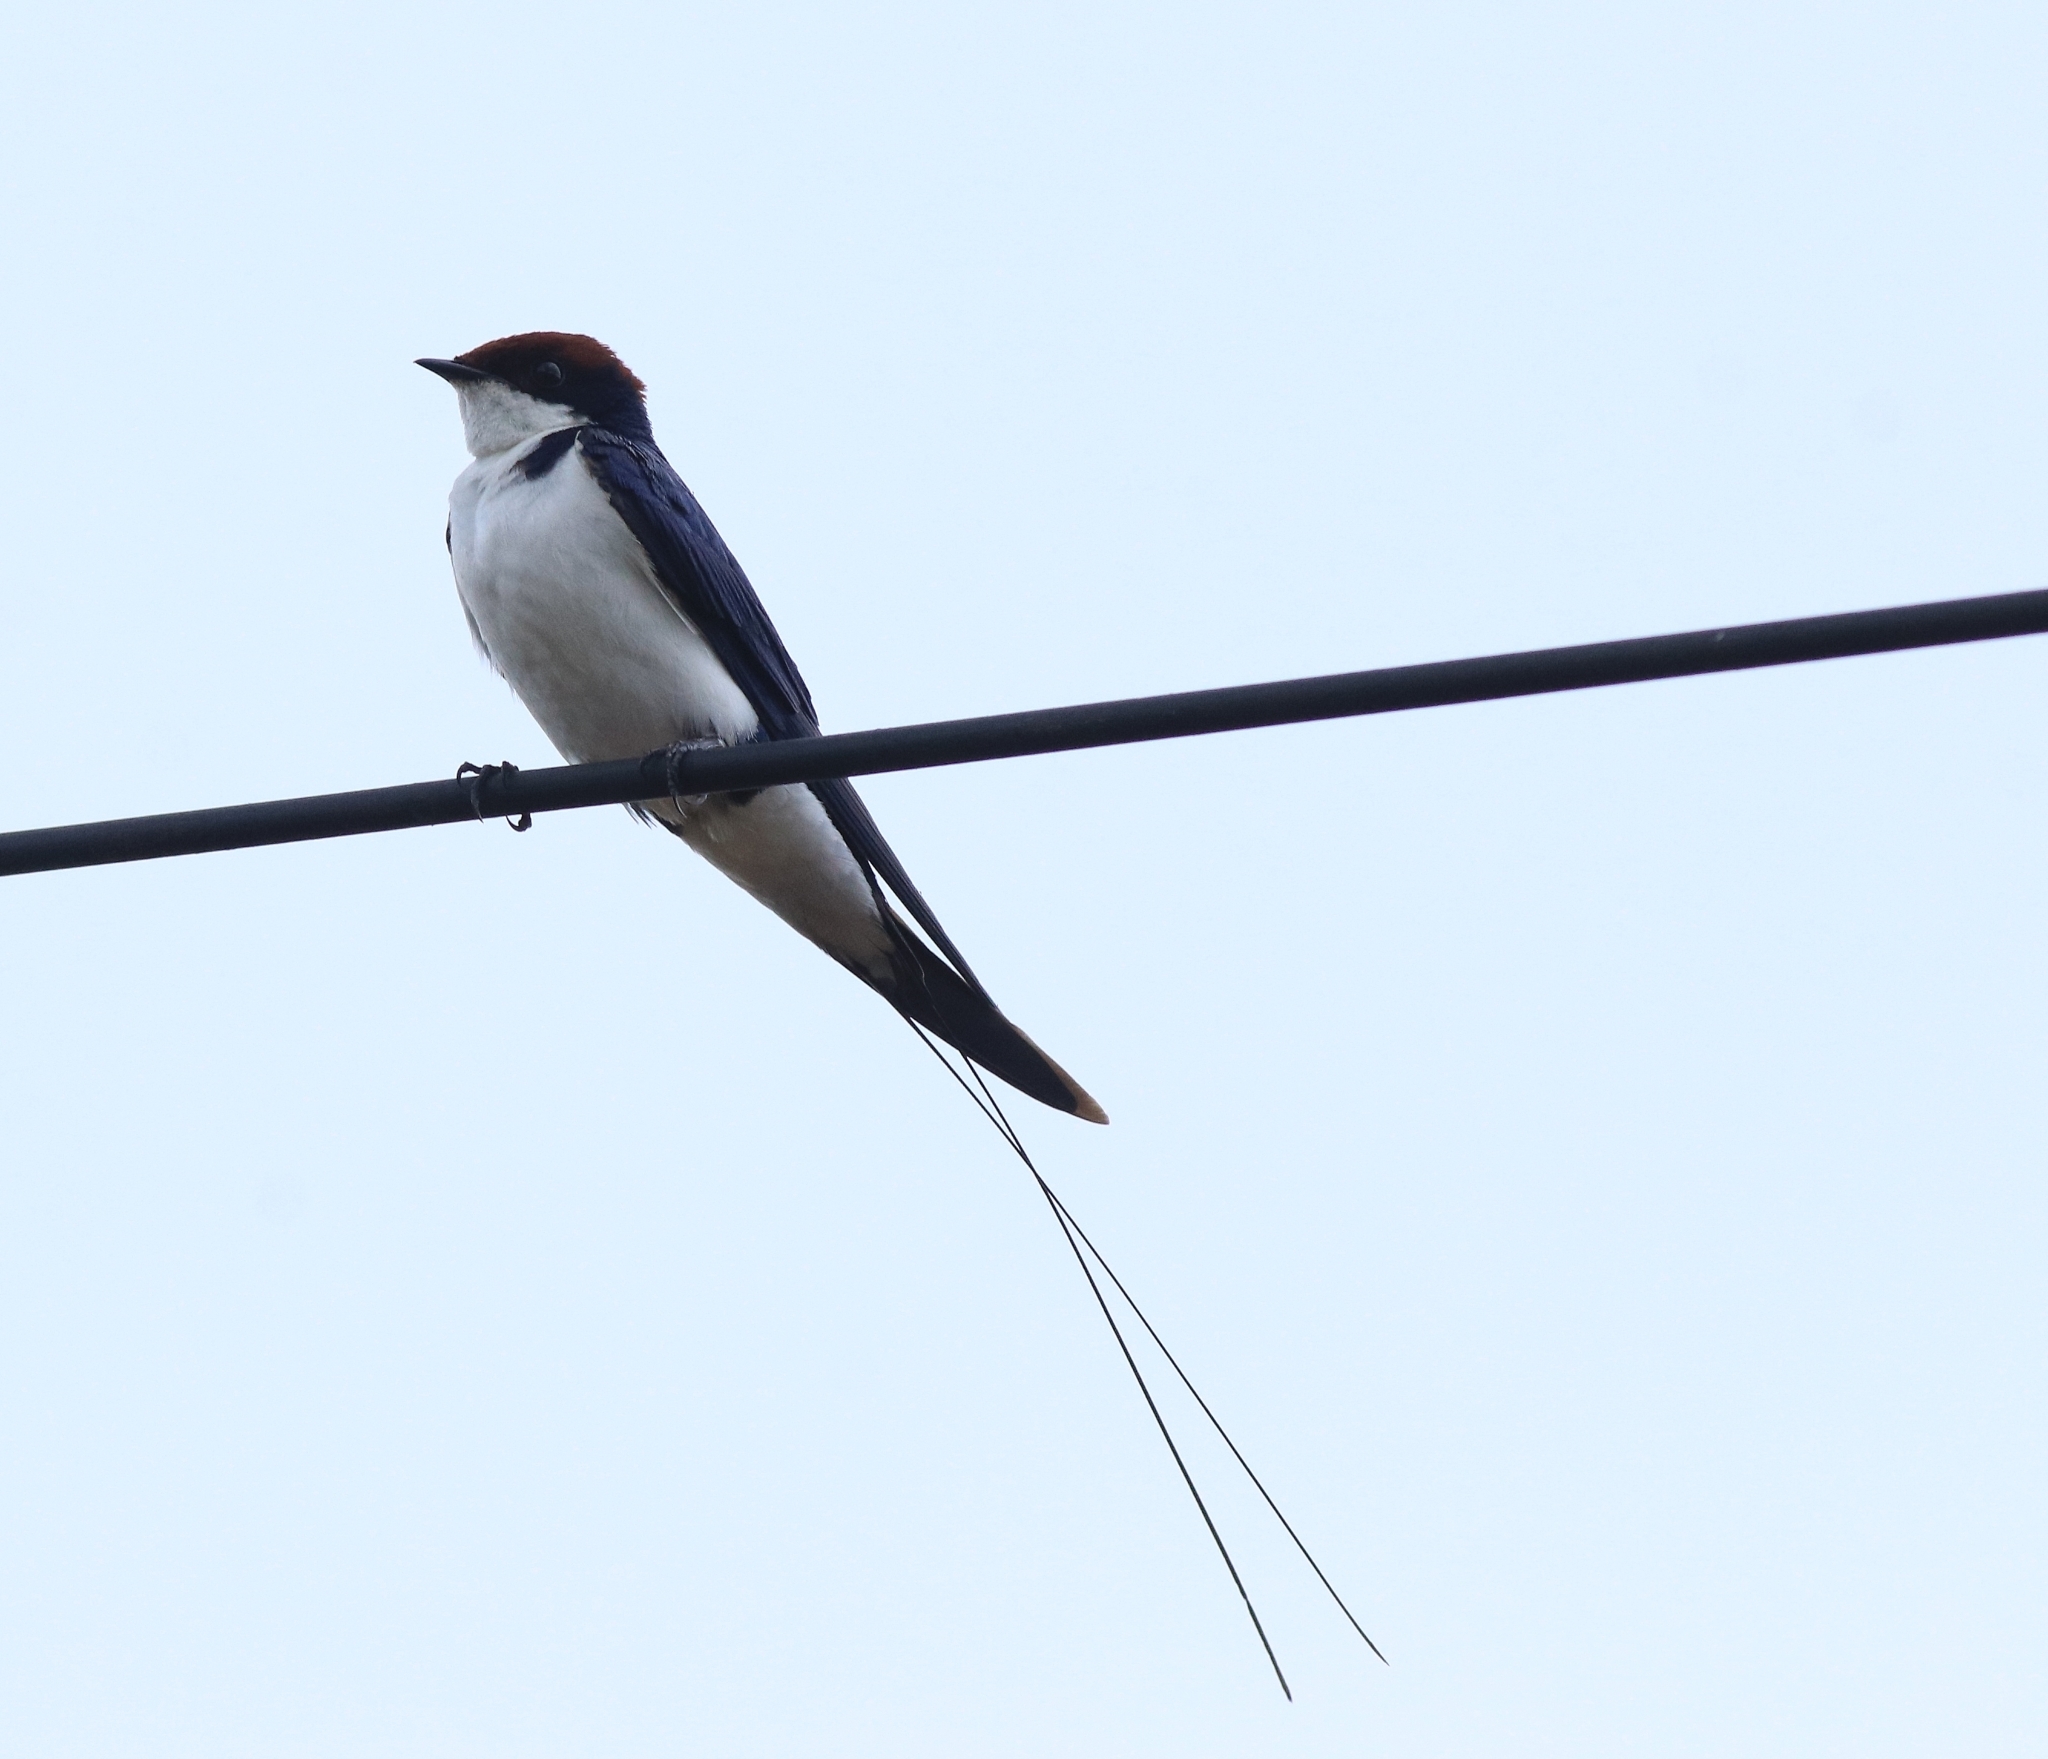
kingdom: Animalia
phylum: Chordata
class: Aves
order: Passeriformes
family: Hirundinidae
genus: Hirundo
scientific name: Hirundo smithii
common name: Wire-tailed swallow
